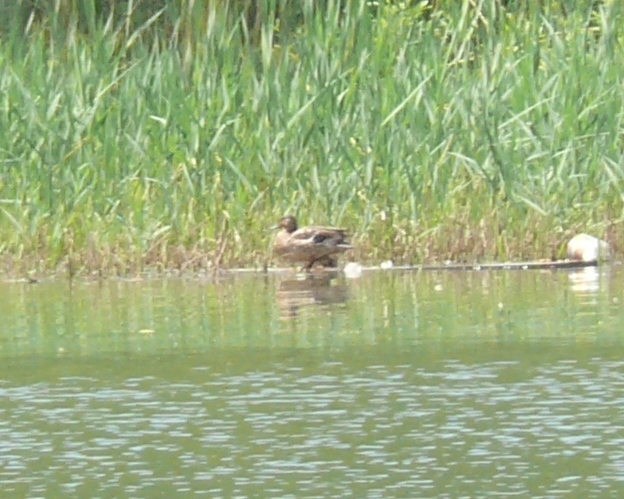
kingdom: Animalia
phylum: Chordata
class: Aves
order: Anseriformes
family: Anatidae
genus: Anas
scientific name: Anas platyrhynchos
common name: Mallard
